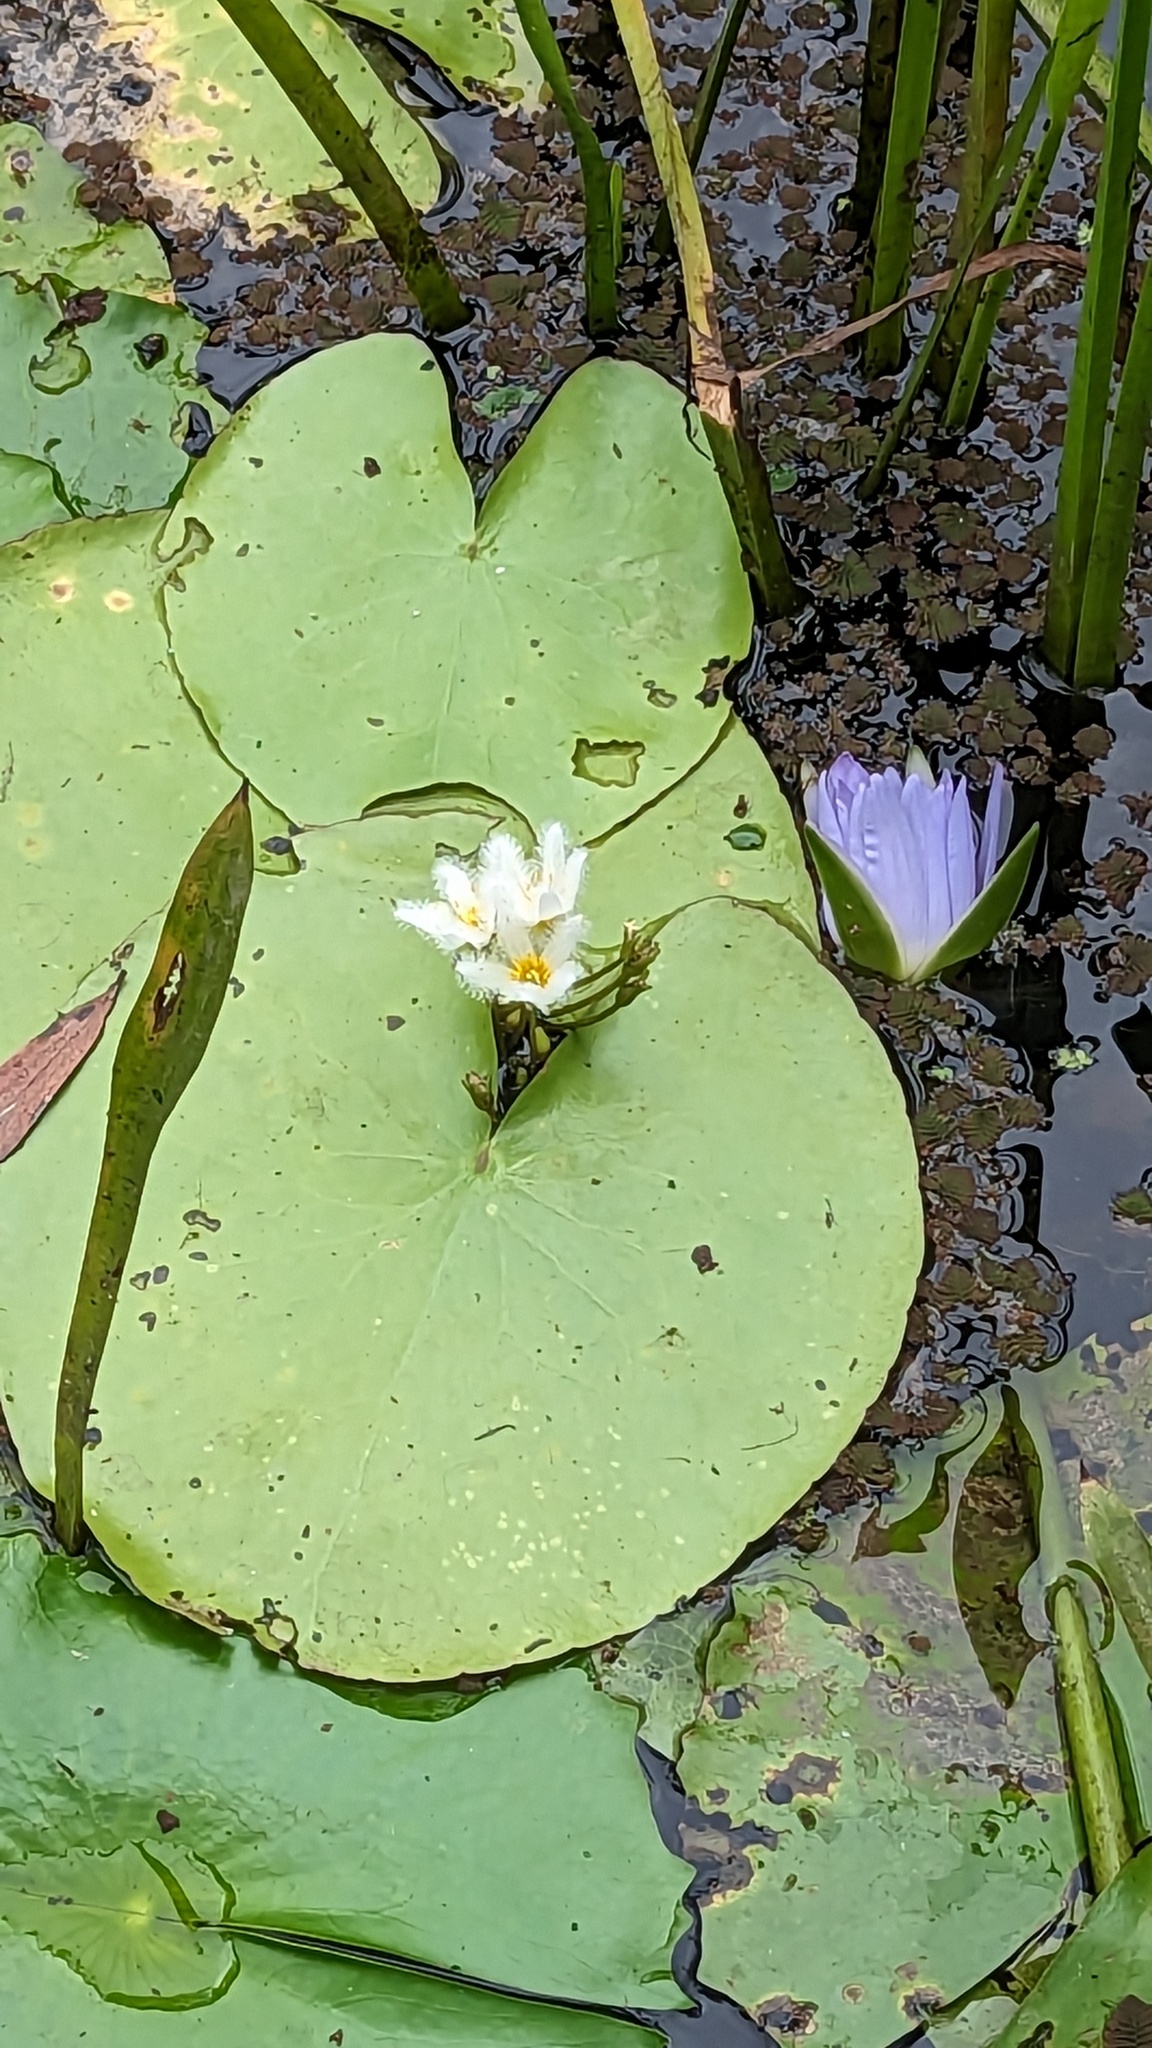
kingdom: Plantae
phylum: Tracheophyta
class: Magnoliopsida
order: Asterales
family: Menyanthaceae
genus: Nymphoides
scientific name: Nymphoides indica
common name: Water-snowflake
